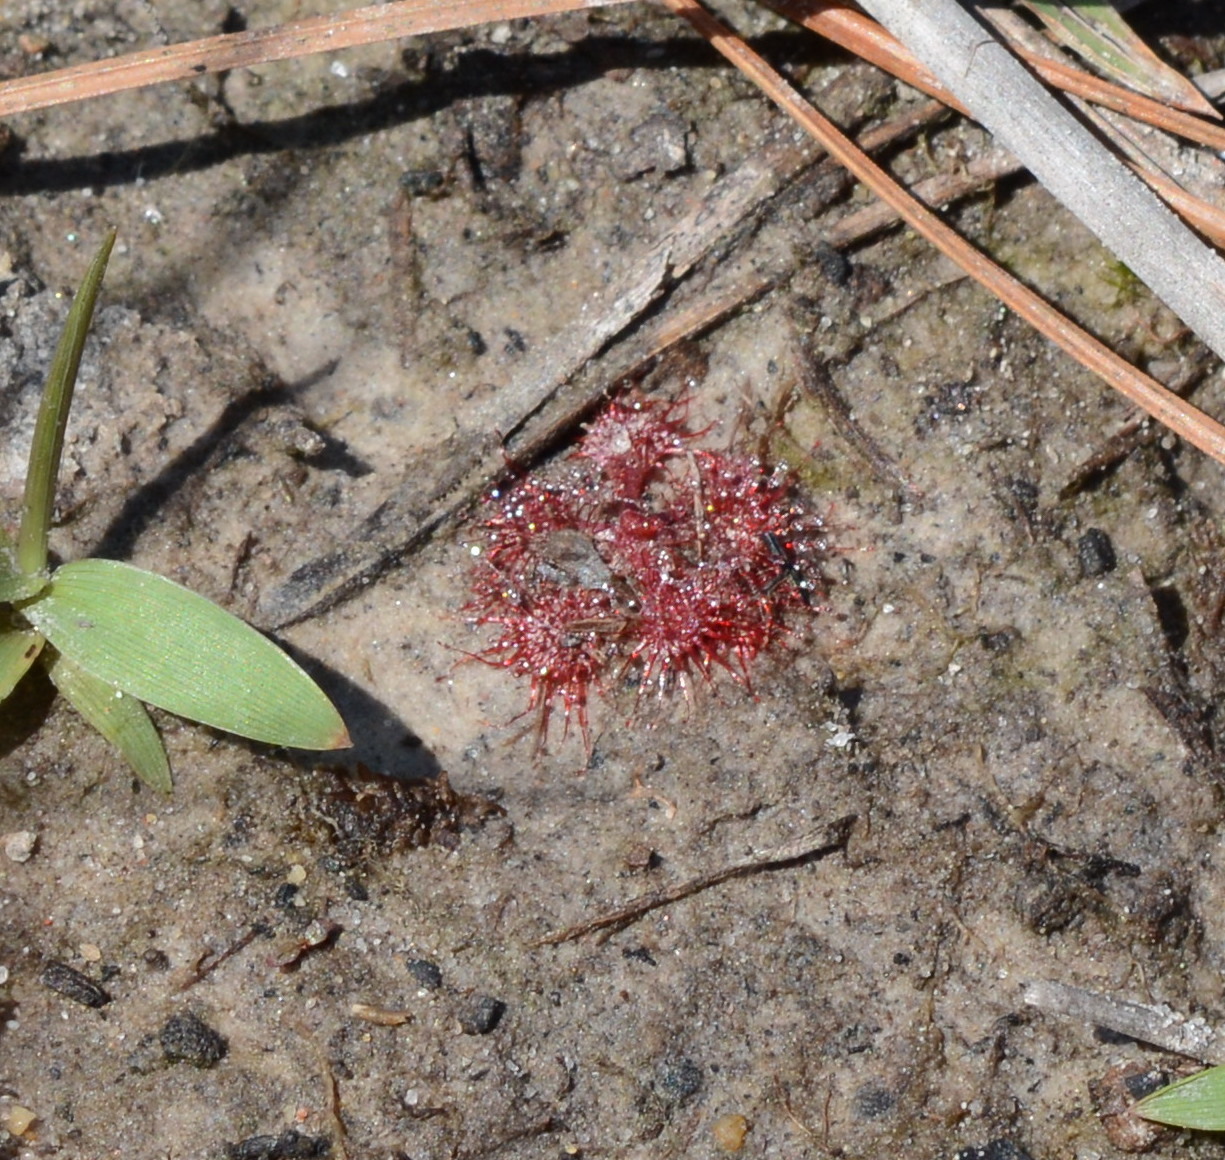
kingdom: Plantae
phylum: Tracheophyta
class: Magnoliopsida
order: Caryophyllales
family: Droseraceae
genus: Drosera
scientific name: Drosera brevifolia
